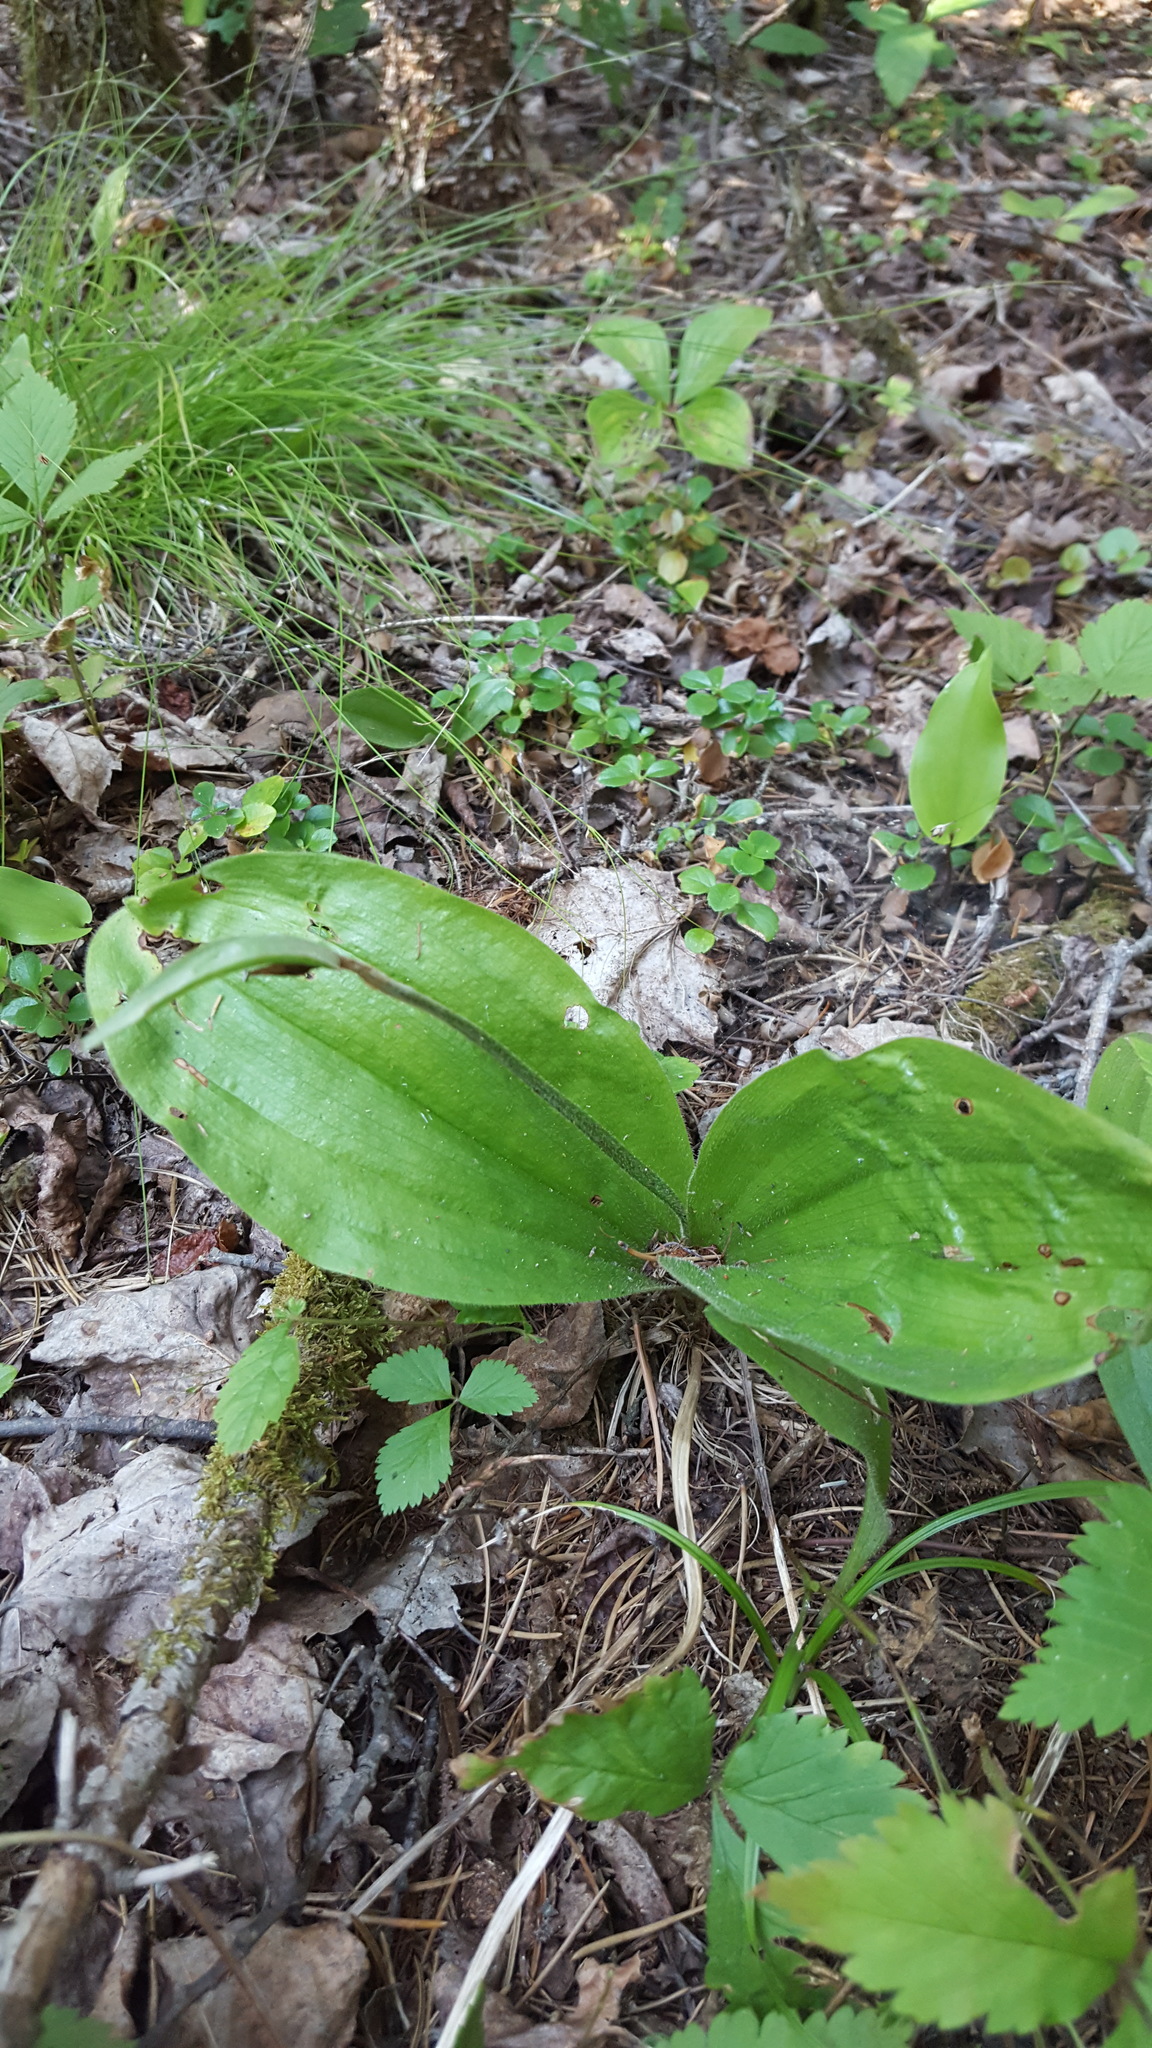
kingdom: Plantae
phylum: Tracheophyta
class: Liliopsida
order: Asparagales
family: Orchidaceae
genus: Cypripedium
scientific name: Cypripedium acaule
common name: Pink lady's-slipper
